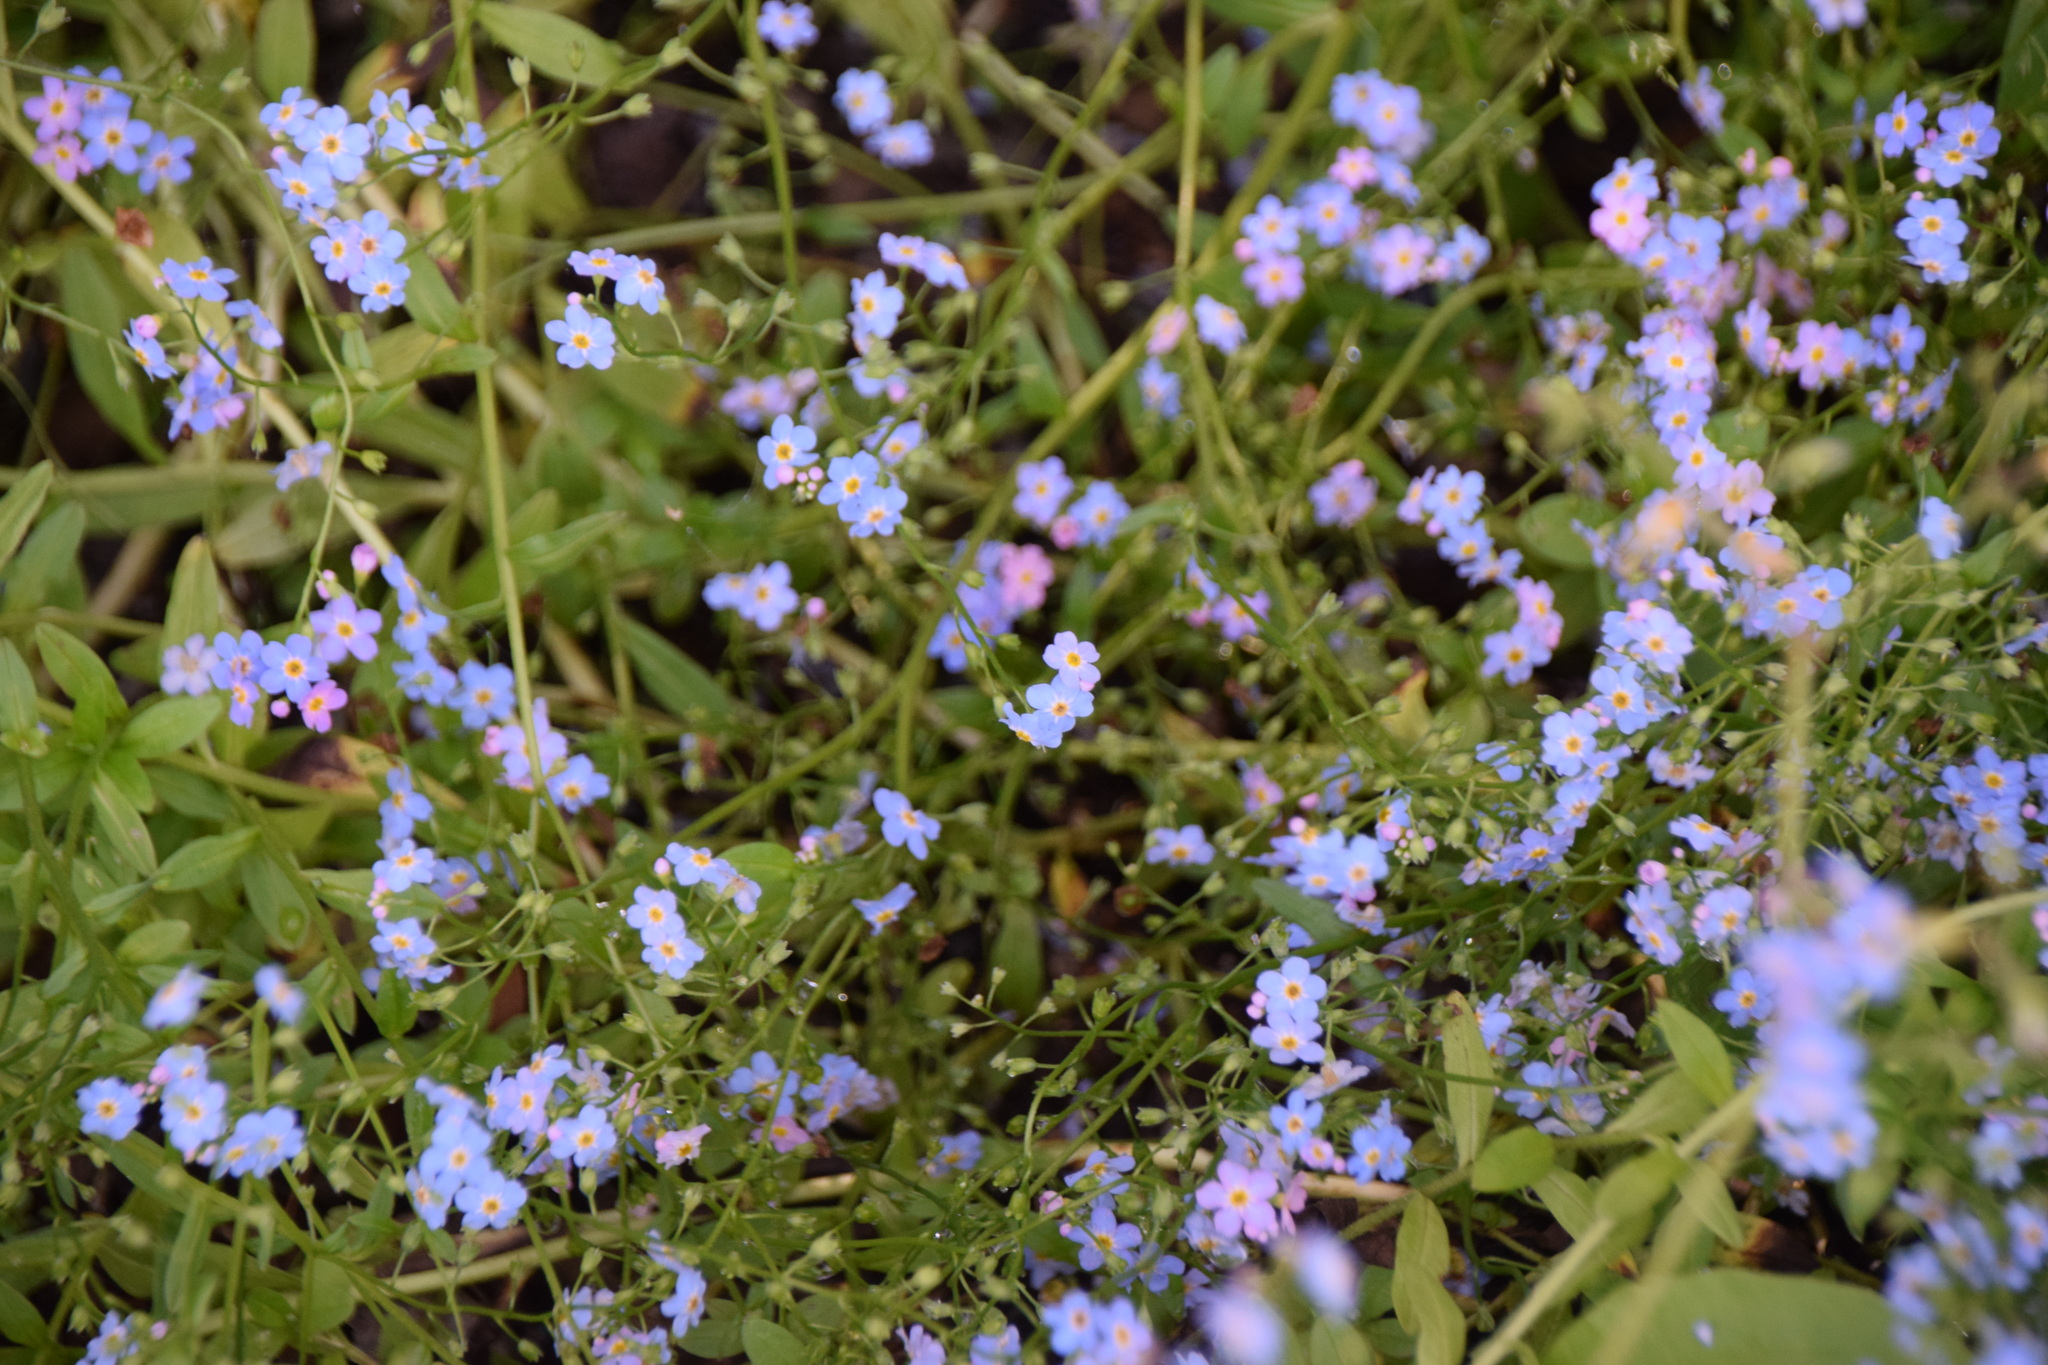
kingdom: Plantae
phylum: Tracheophyta
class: Magnoliopsida
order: Boraginales
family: Boraginaceae
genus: Myosotis
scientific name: Myosotis scorpioides
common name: Water forget-me-not
